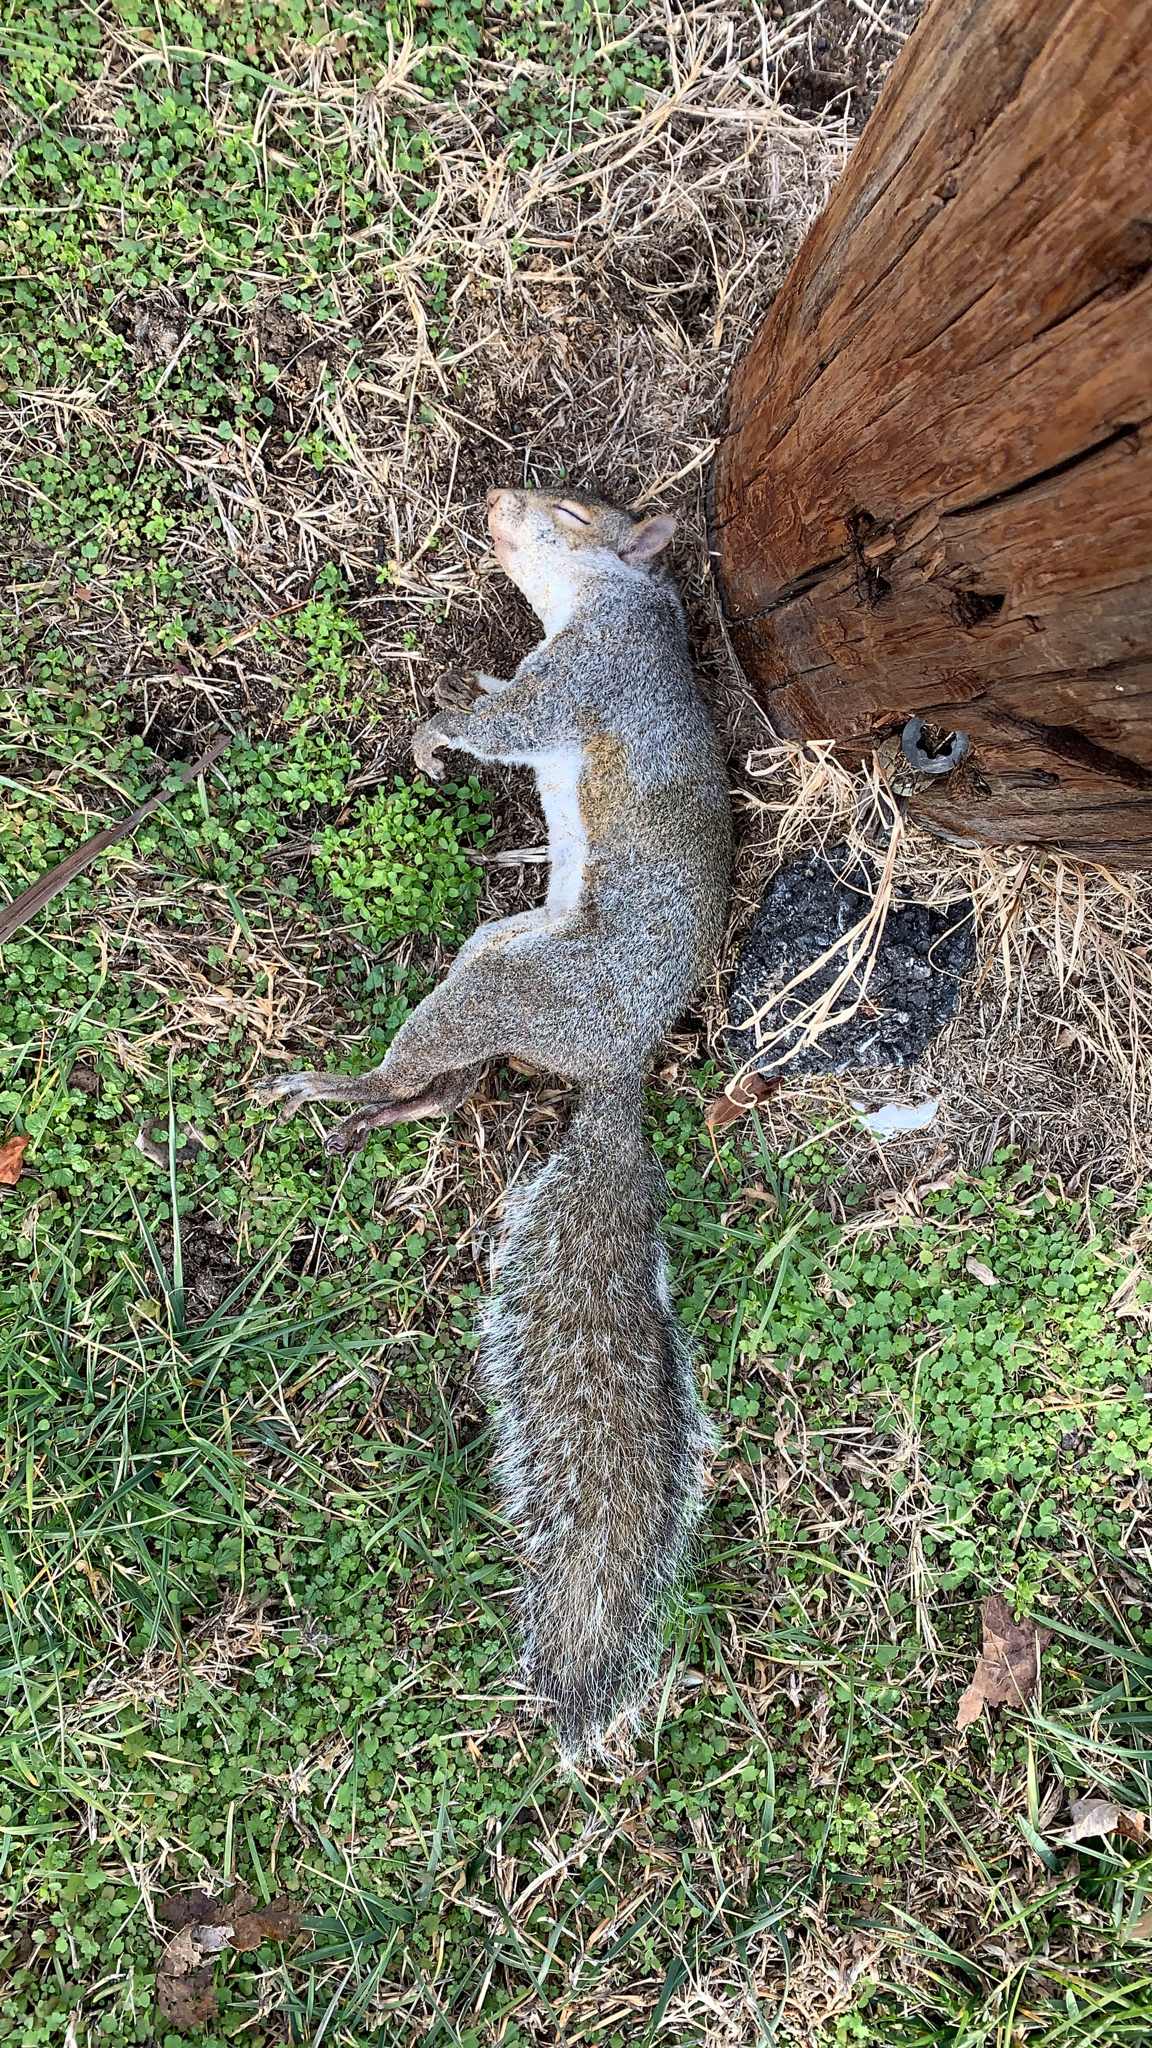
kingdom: Animalia
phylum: Chordata
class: Mammalia
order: Rodentia
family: Sciuridae
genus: Sciurus
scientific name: Sciurus carolinensis
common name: Eastern gray squirrel
